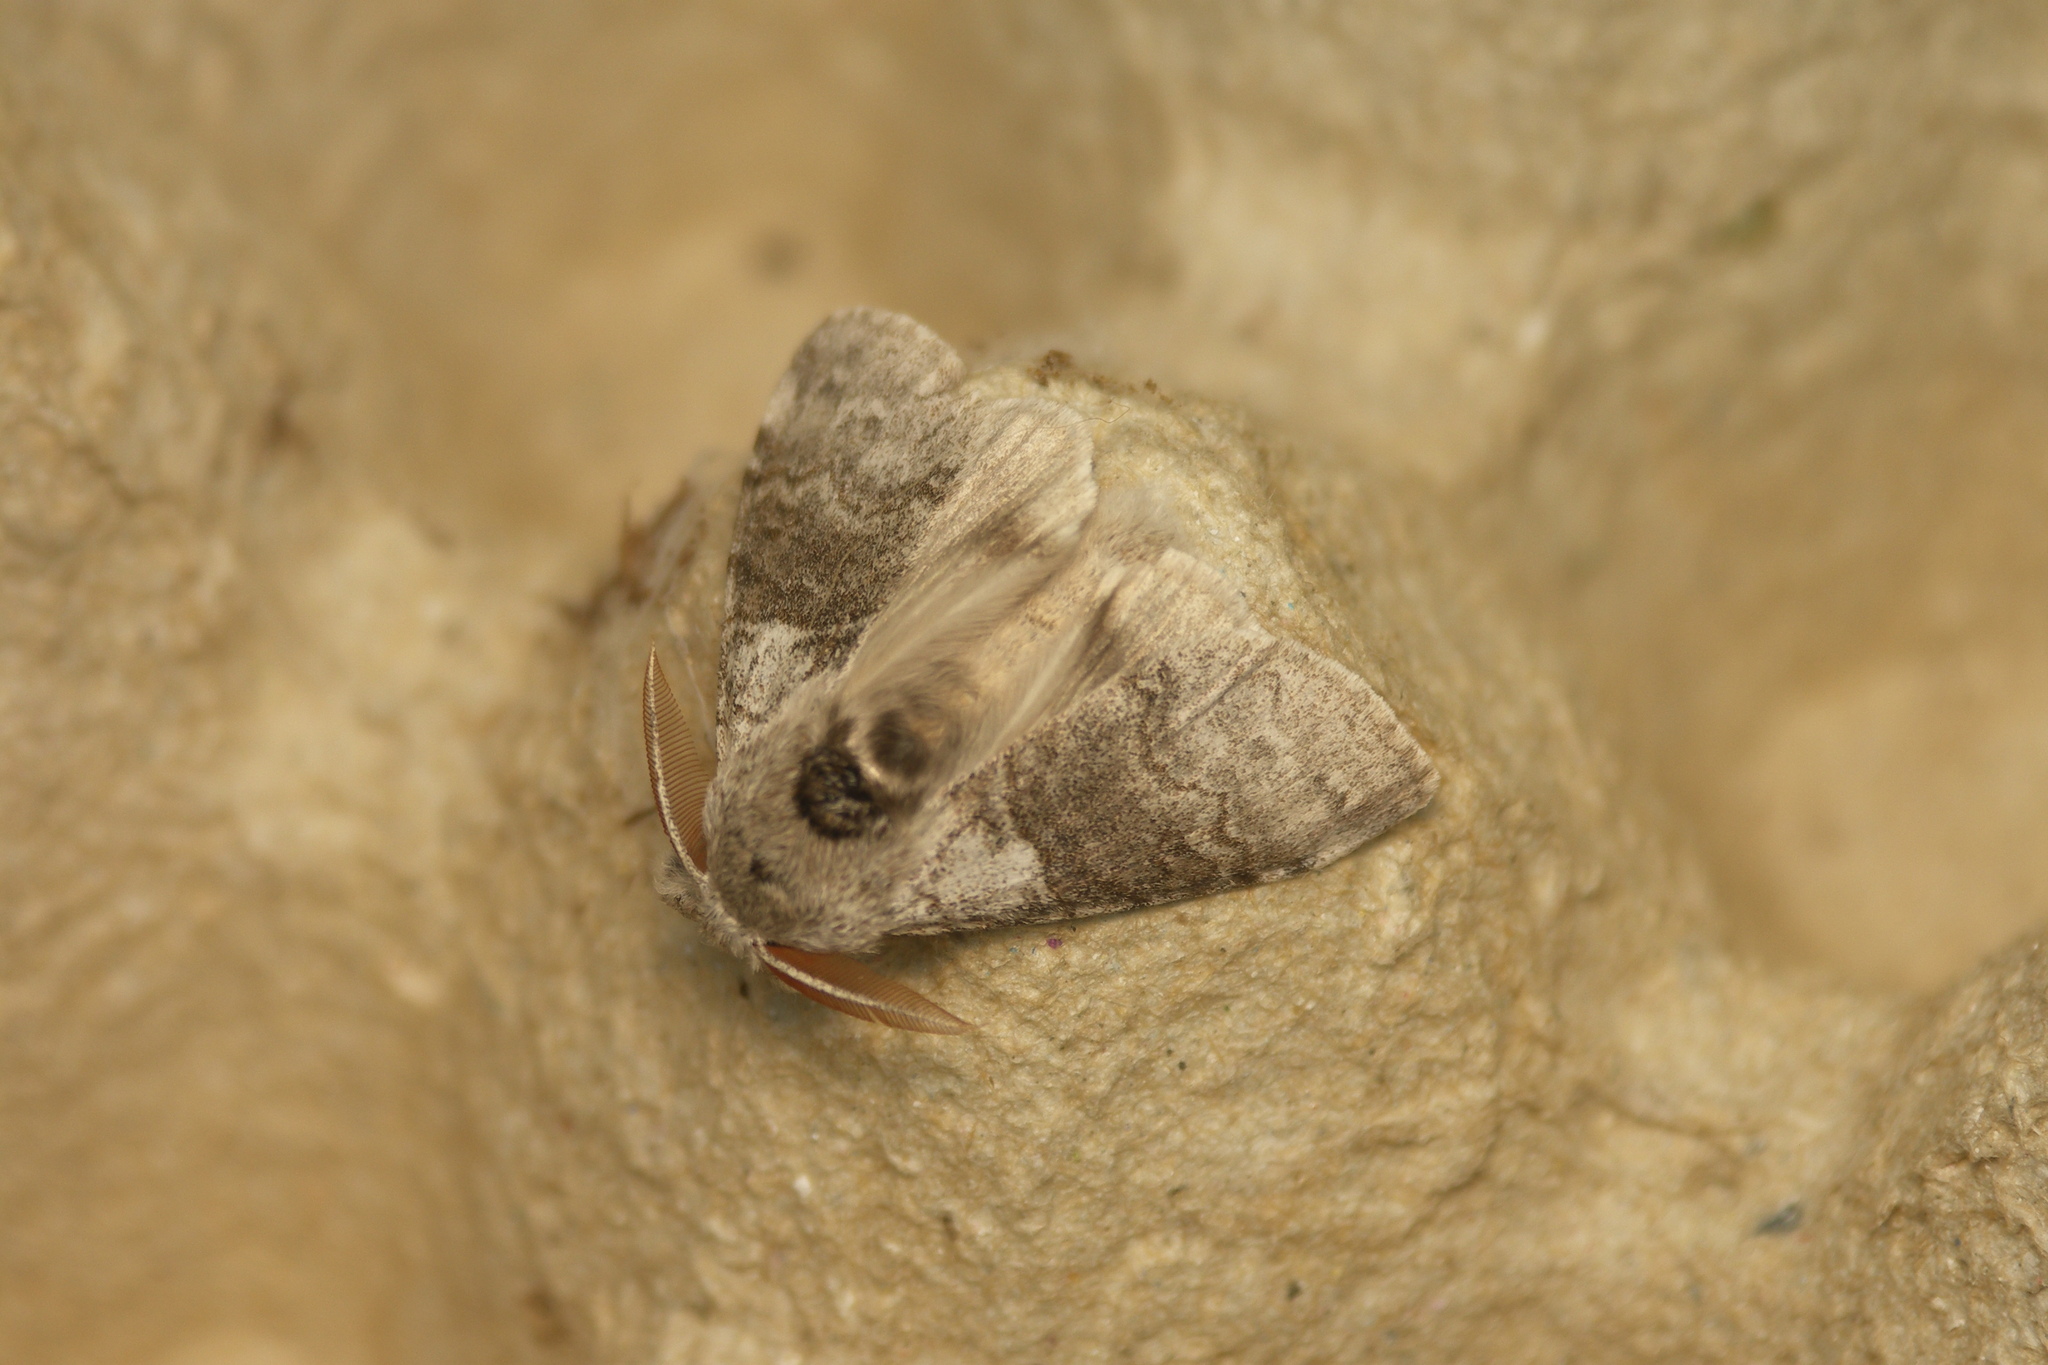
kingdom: Animalia
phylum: Arthropoda
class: Insecta
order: Lepidoptera
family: Erebidae
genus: Calliteara
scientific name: Calliteara pudibunda
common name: Pale tussock
